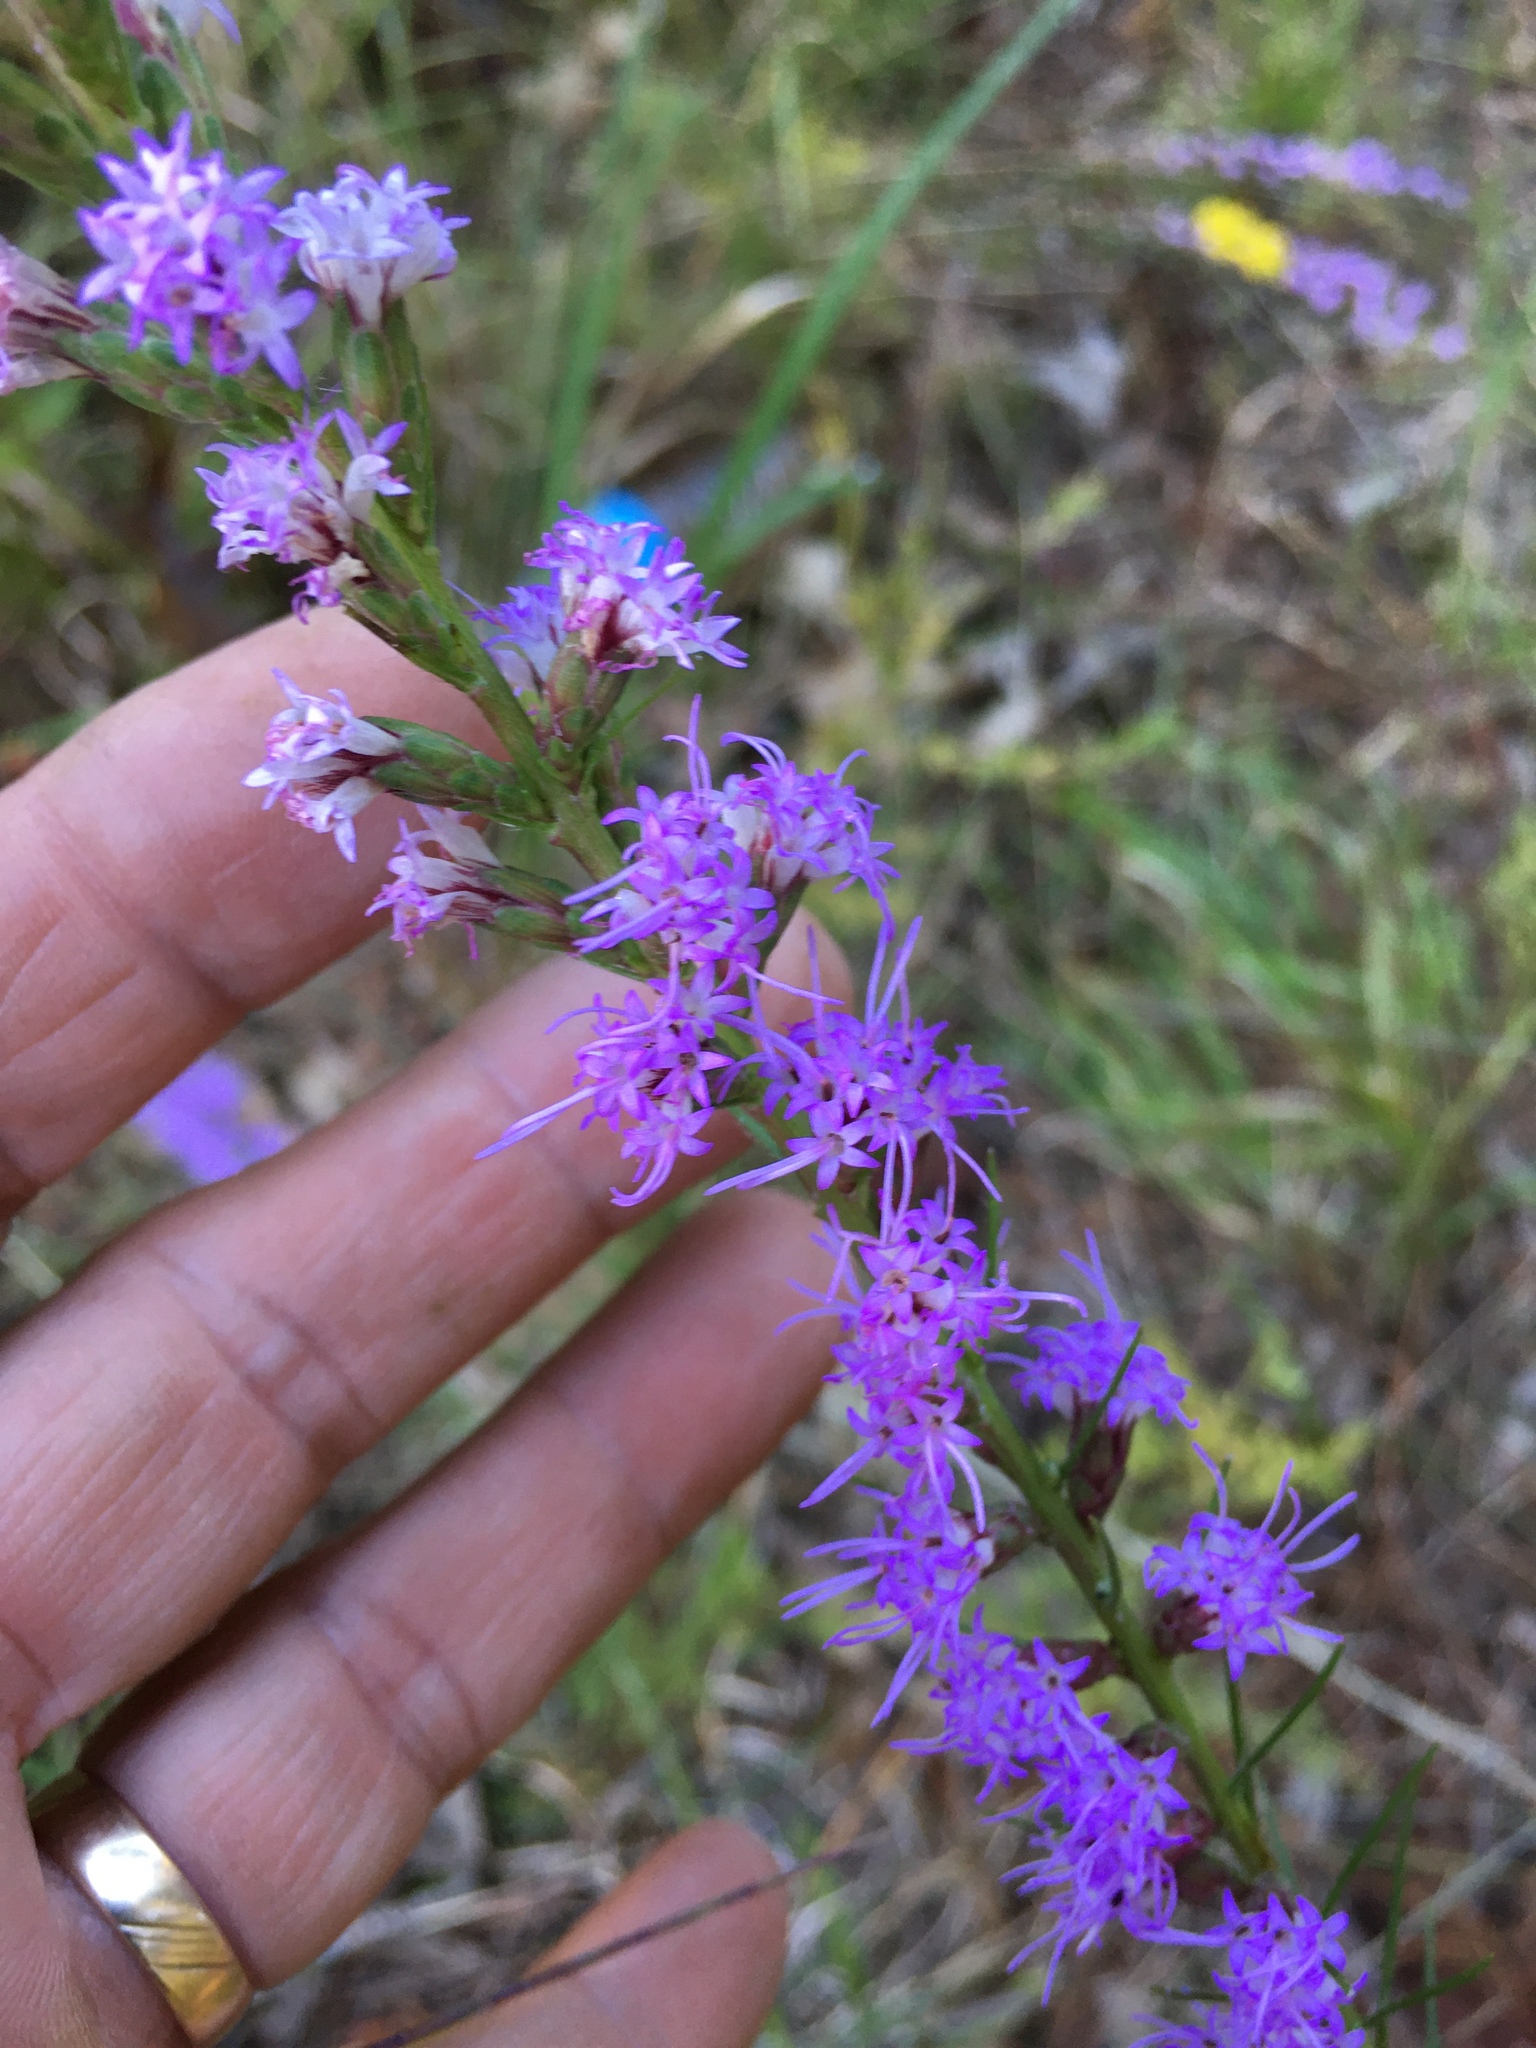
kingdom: Plantae
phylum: Tracheophyta
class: Magnoliopsida
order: Asterales
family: Asteraceae
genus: Liatris
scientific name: Liatris pilosa
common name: Grass-leaf gayfeather
